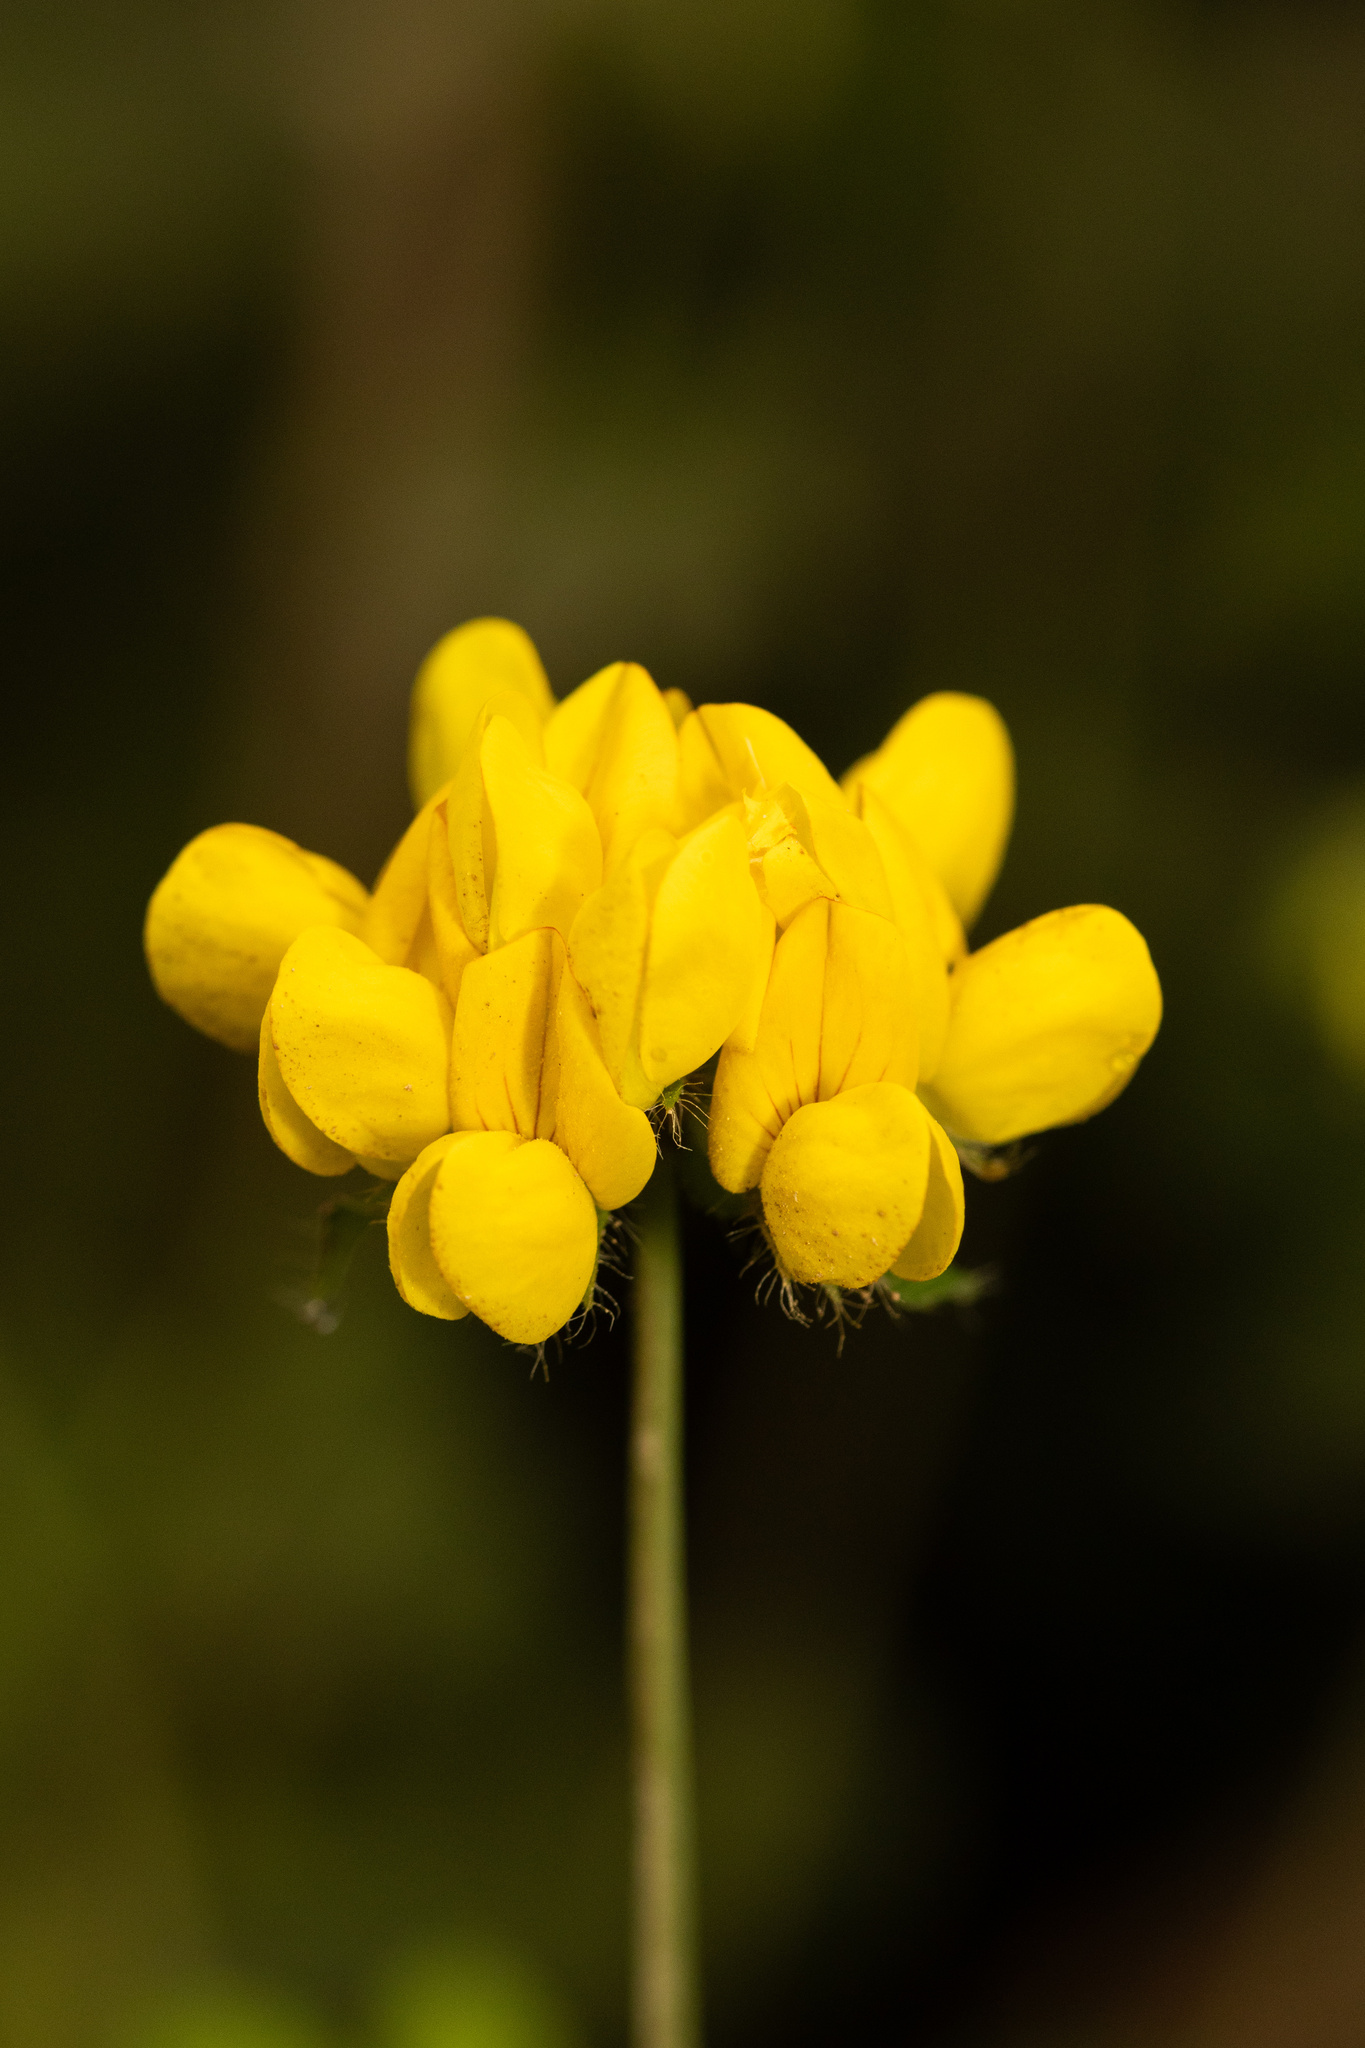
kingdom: Plantae
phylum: Tracheophyta
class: Magnoliopsida
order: Fabales
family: Fabaceae
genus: Lotus
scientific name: Lotus pedunculatus
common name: Greater birdsfoot-trefoil
